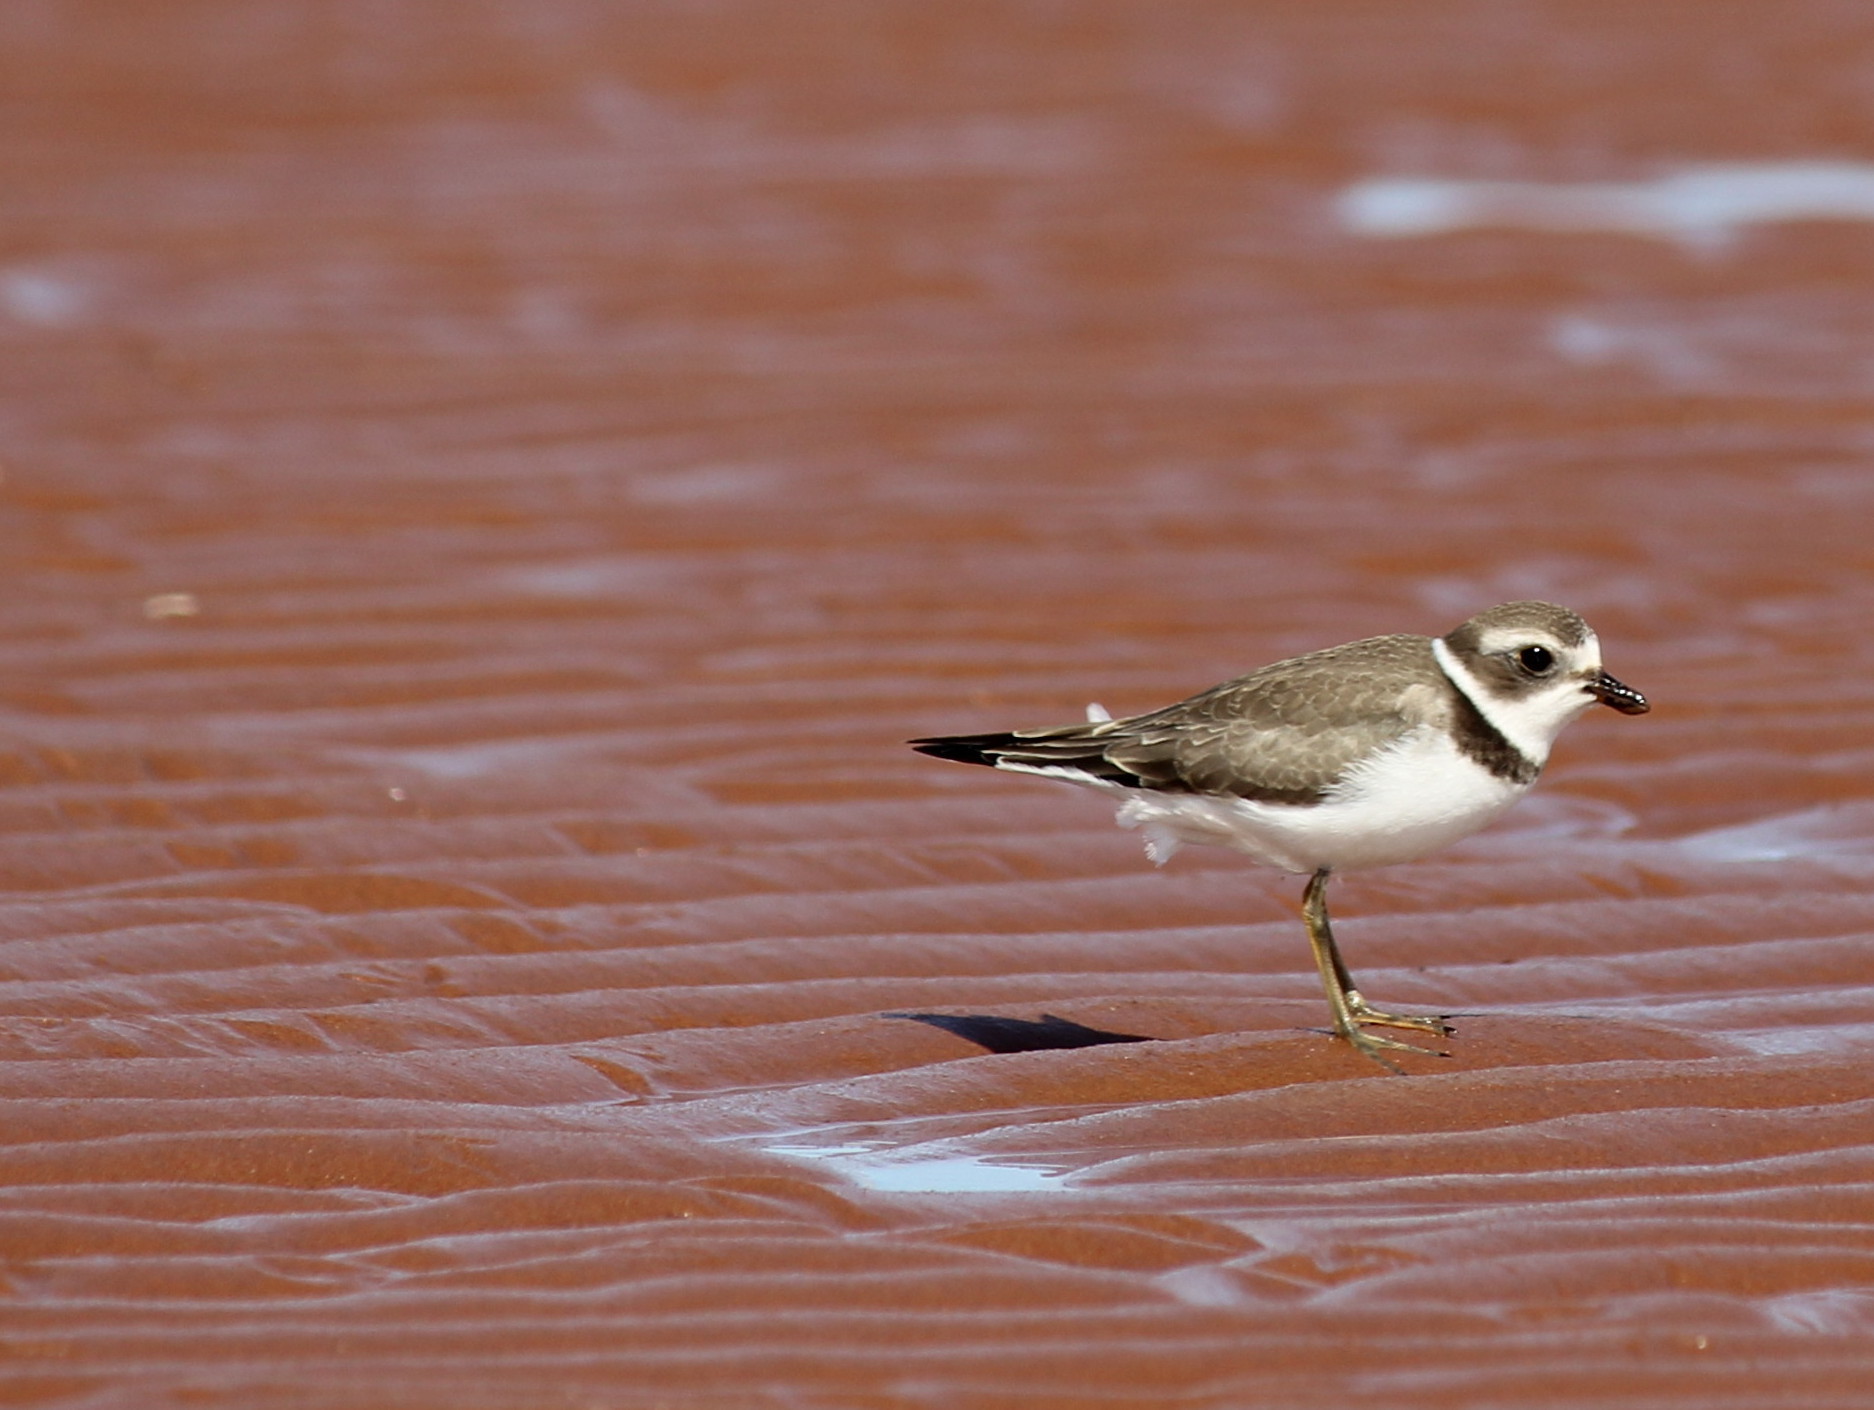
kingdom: Animalia
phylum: Chordata
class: Aves
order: Charadriiformes
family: Charadriidae
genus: Charadrius
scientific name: Charadrius semipalmatus
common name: Semipalmated plover
